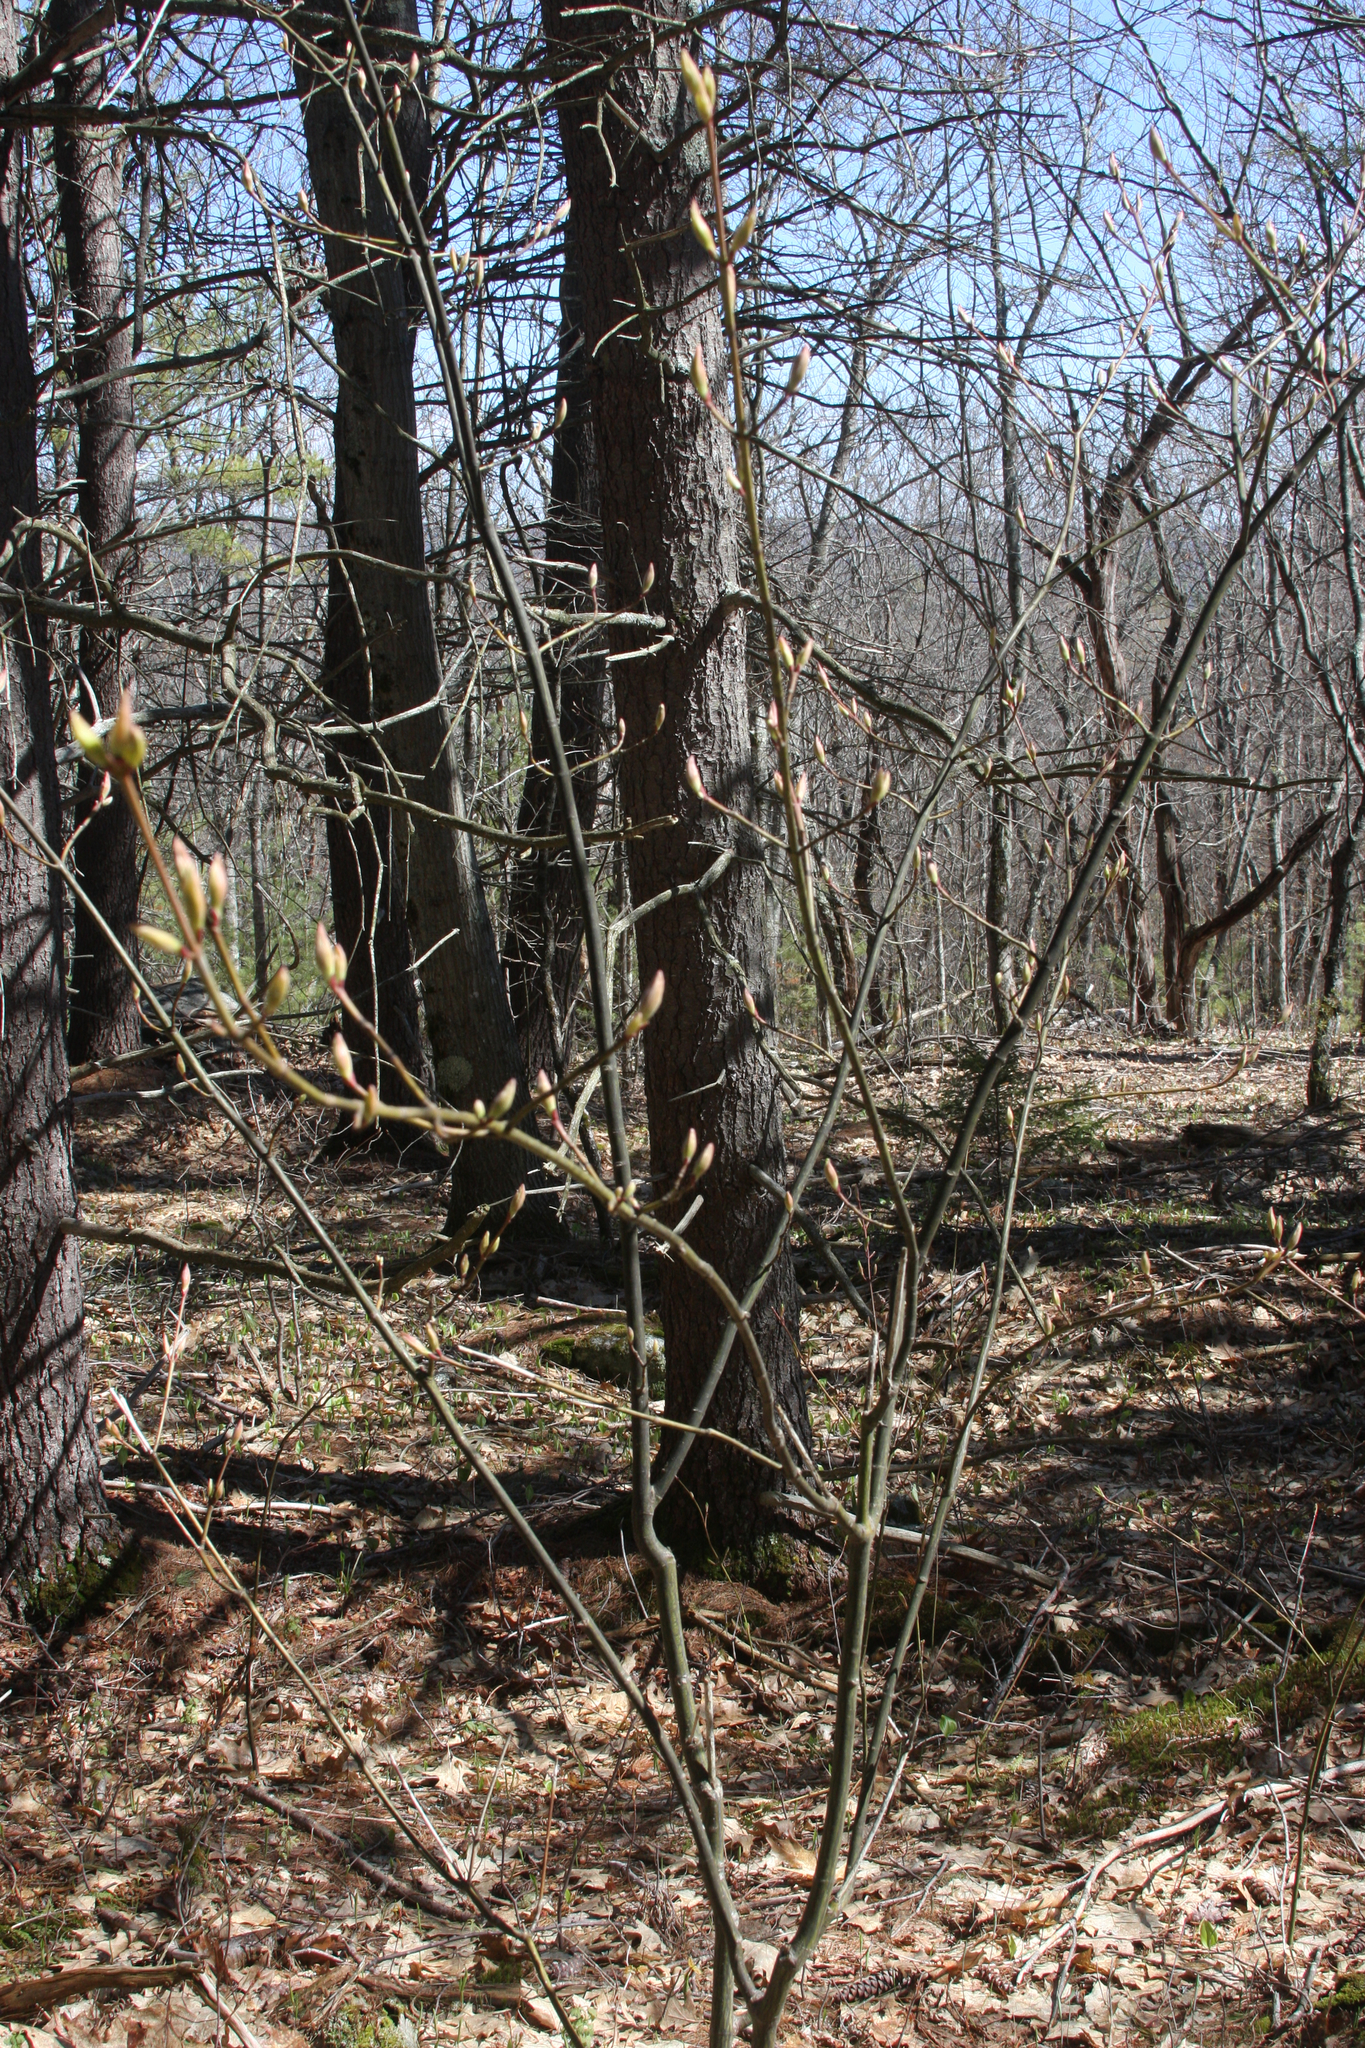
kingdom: Plantae
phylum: Tracheophyta
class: Magnoliopsida
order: Sapindales
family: Sapindaceae
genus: Acer
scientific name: Acer pensylvanicum
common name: Moosewood
